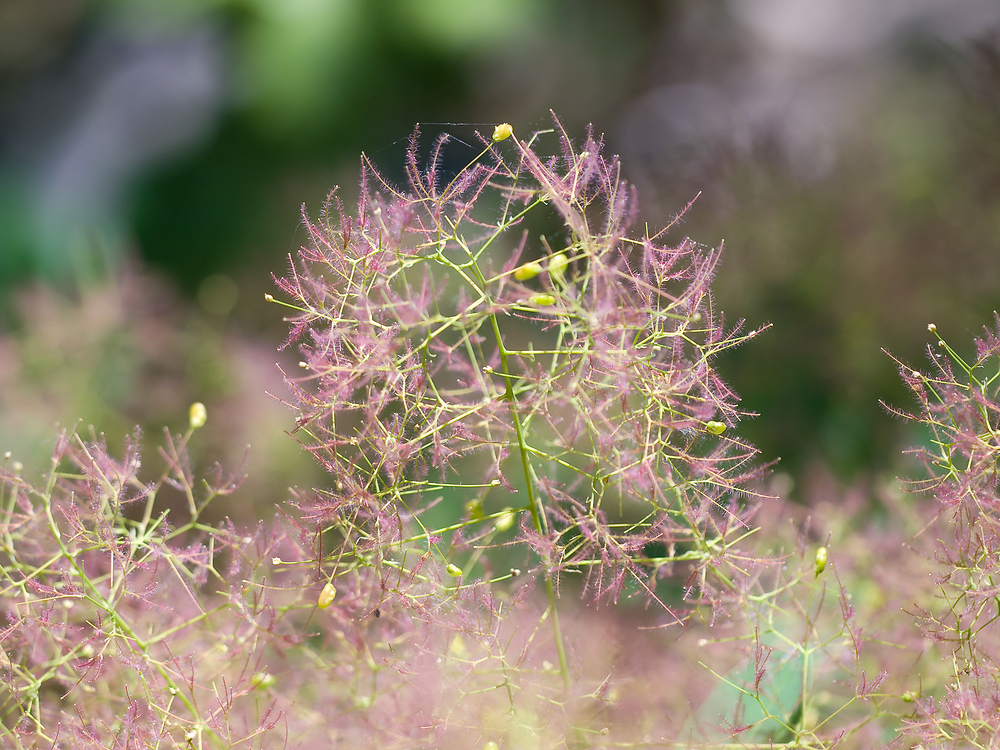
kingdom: Plantae
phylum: Tracheophyta
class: Magnoliopsida
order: Sapindales
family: Anacardiaceae
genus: Cotinus
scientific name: Cotinus coggygria
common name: Smoke-tree
